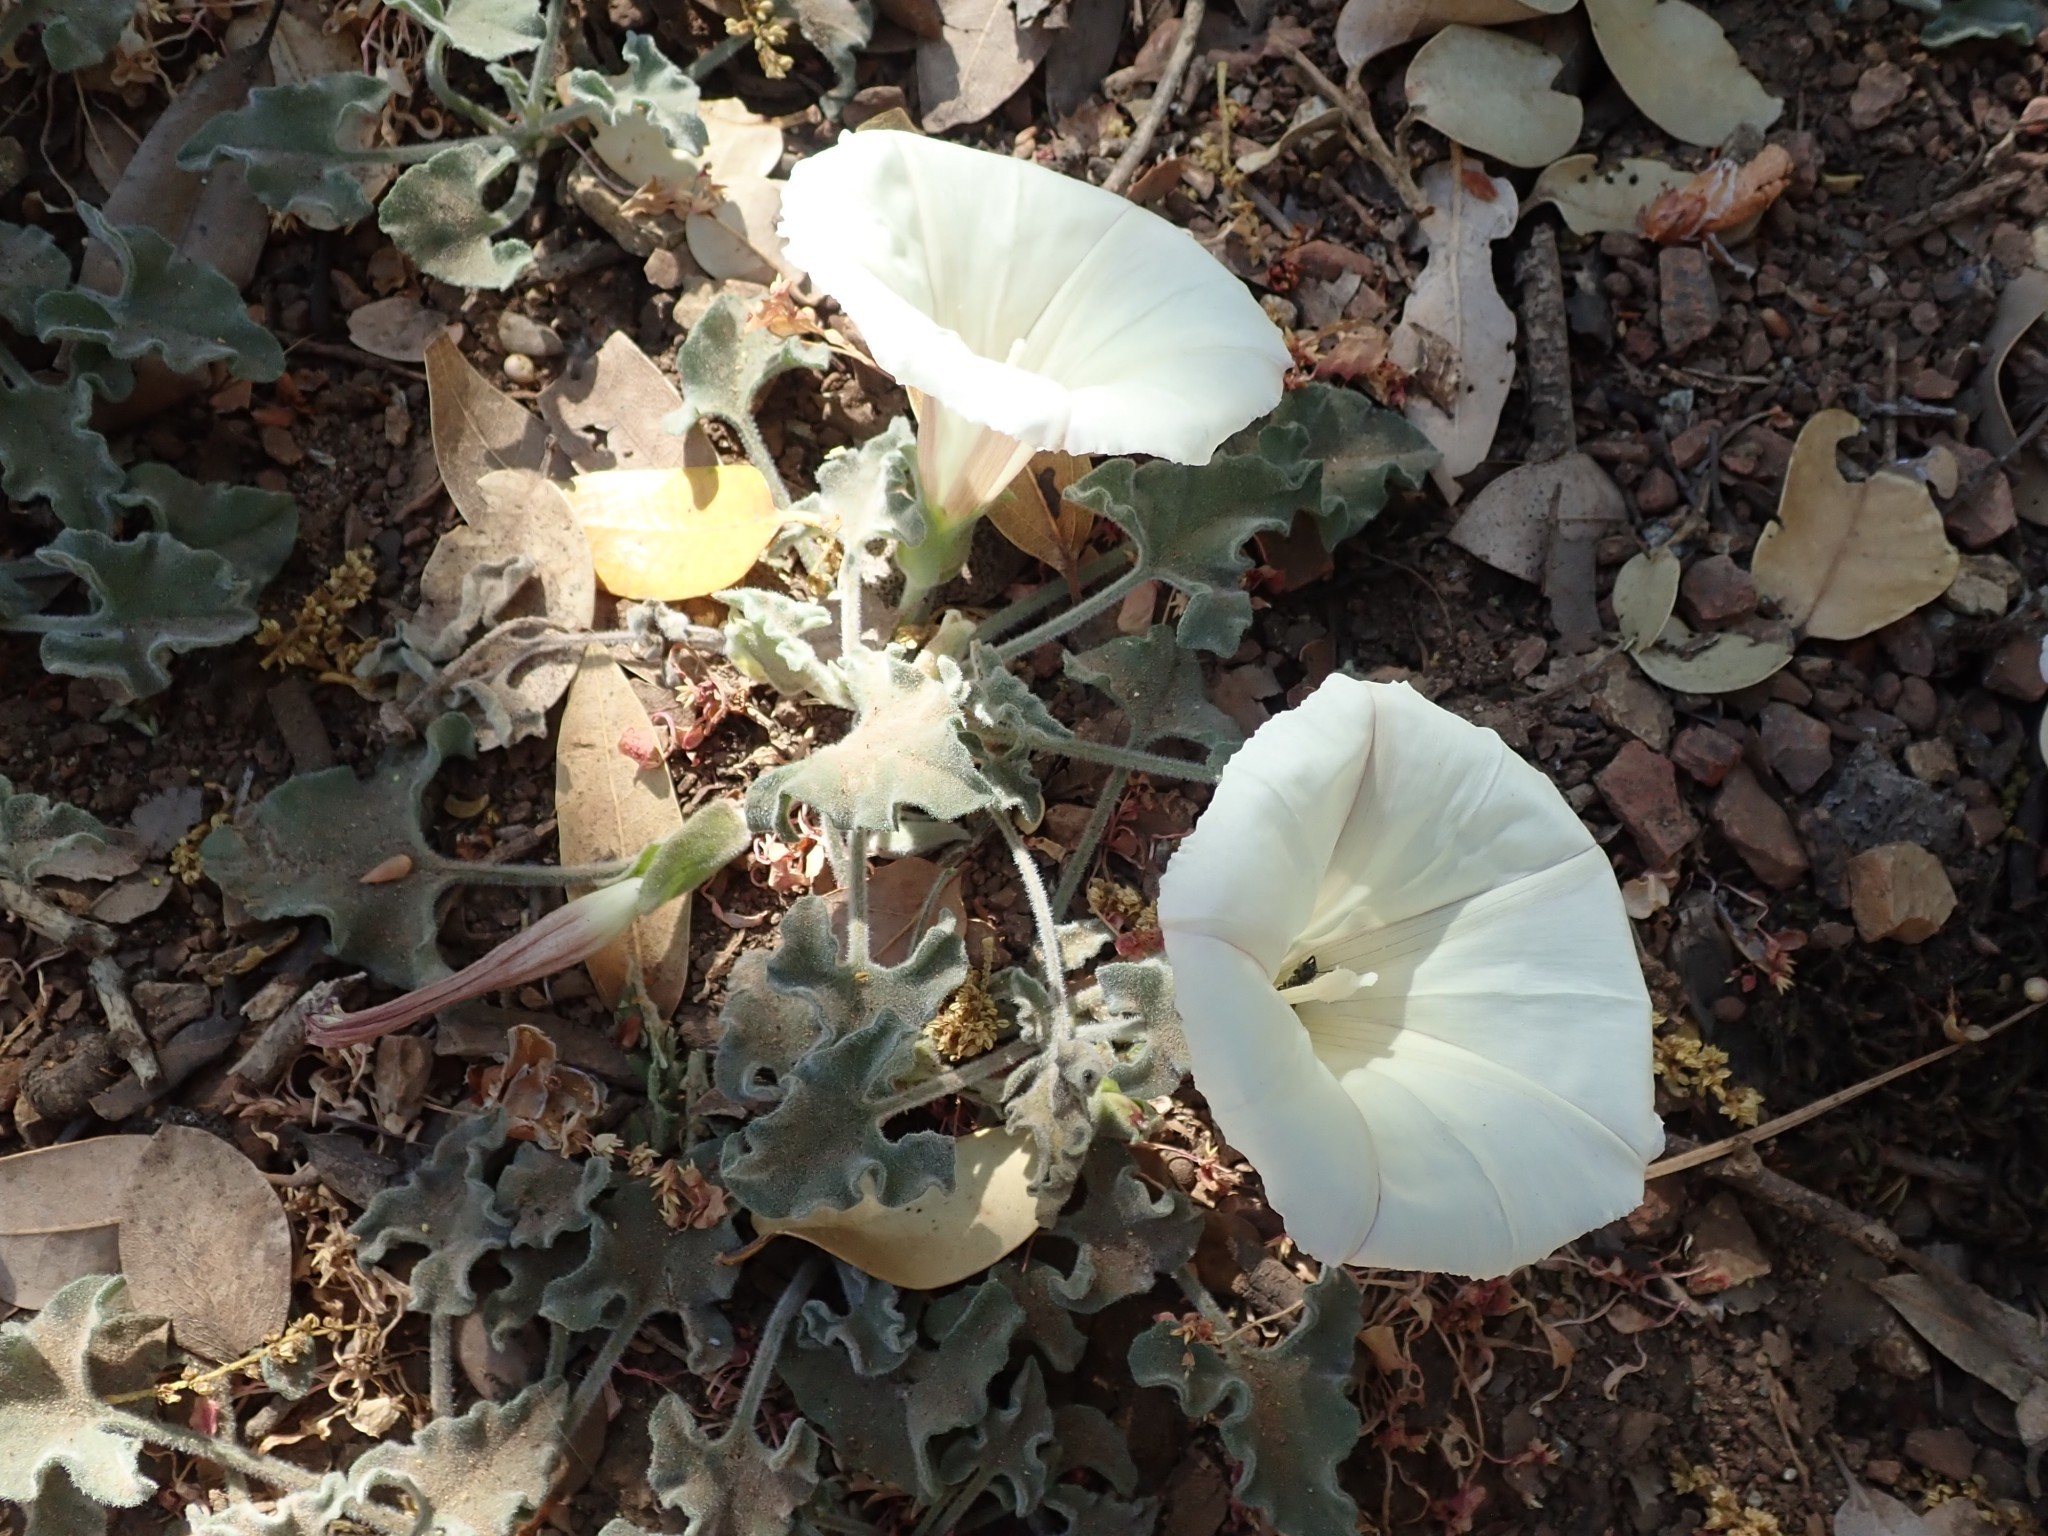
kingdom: Plantae
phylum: Tracheophyta
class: Magnoliopsida
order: Solanales
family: Convolvulaceae
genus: Calystegia
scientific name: Calystegia collina
